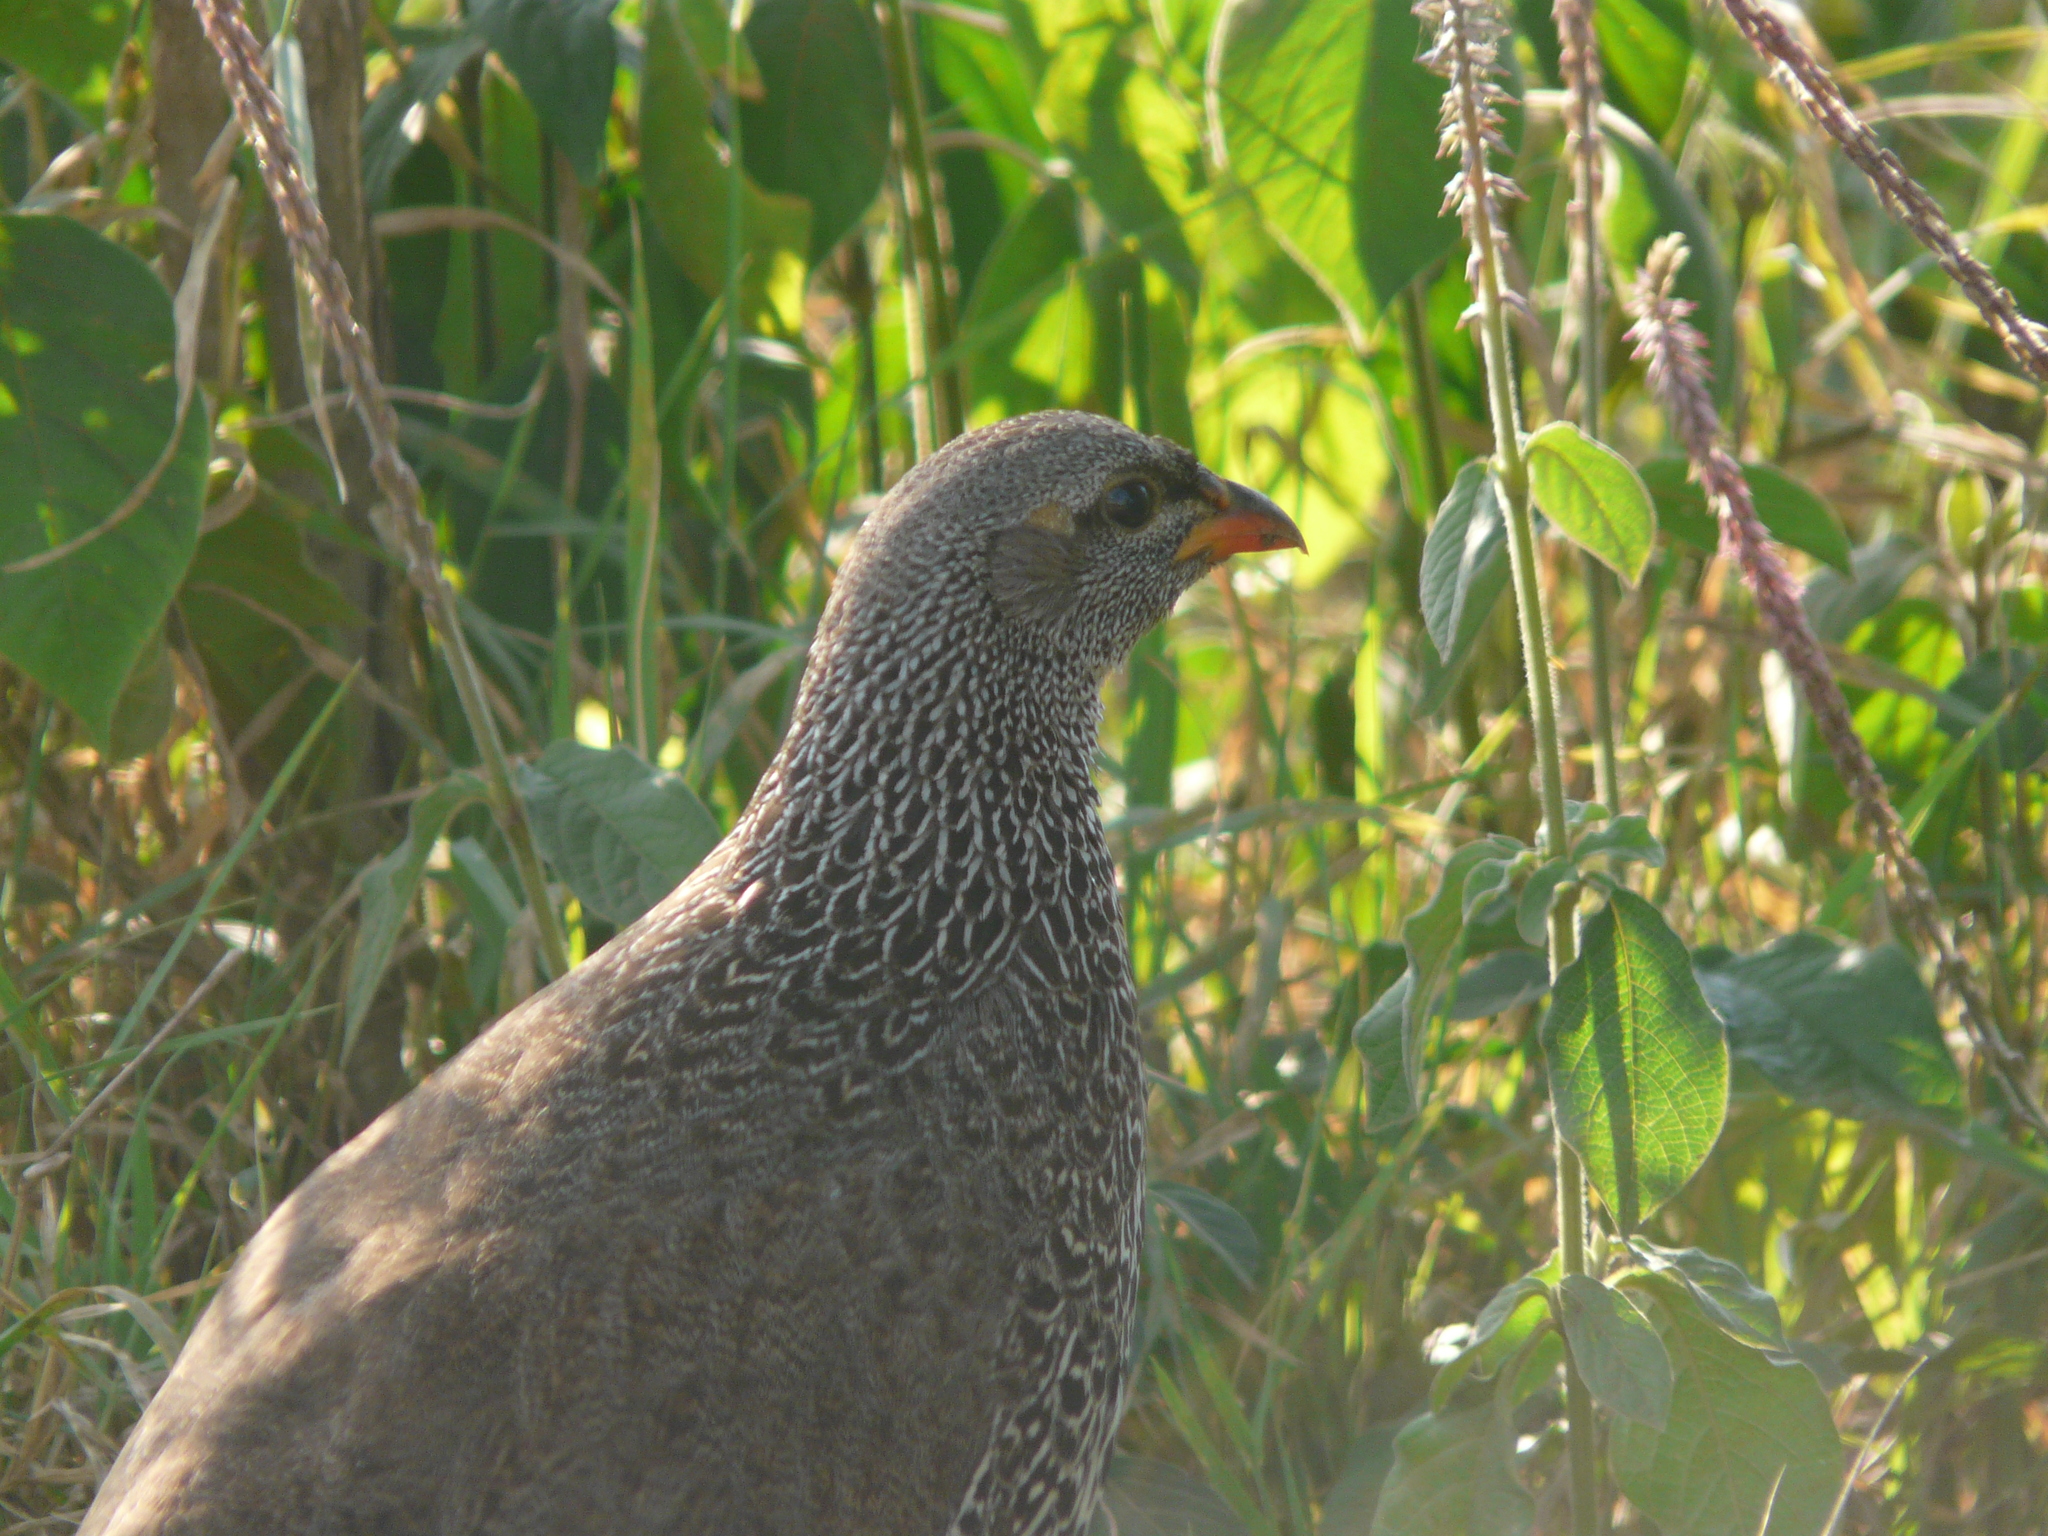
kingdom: Animalia
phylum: Chordata
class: Aves
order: Galliformes
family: Phasianidae
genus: Pternistis
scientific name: Pternistis hildebrandti
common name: Hildebrandt's francolin
